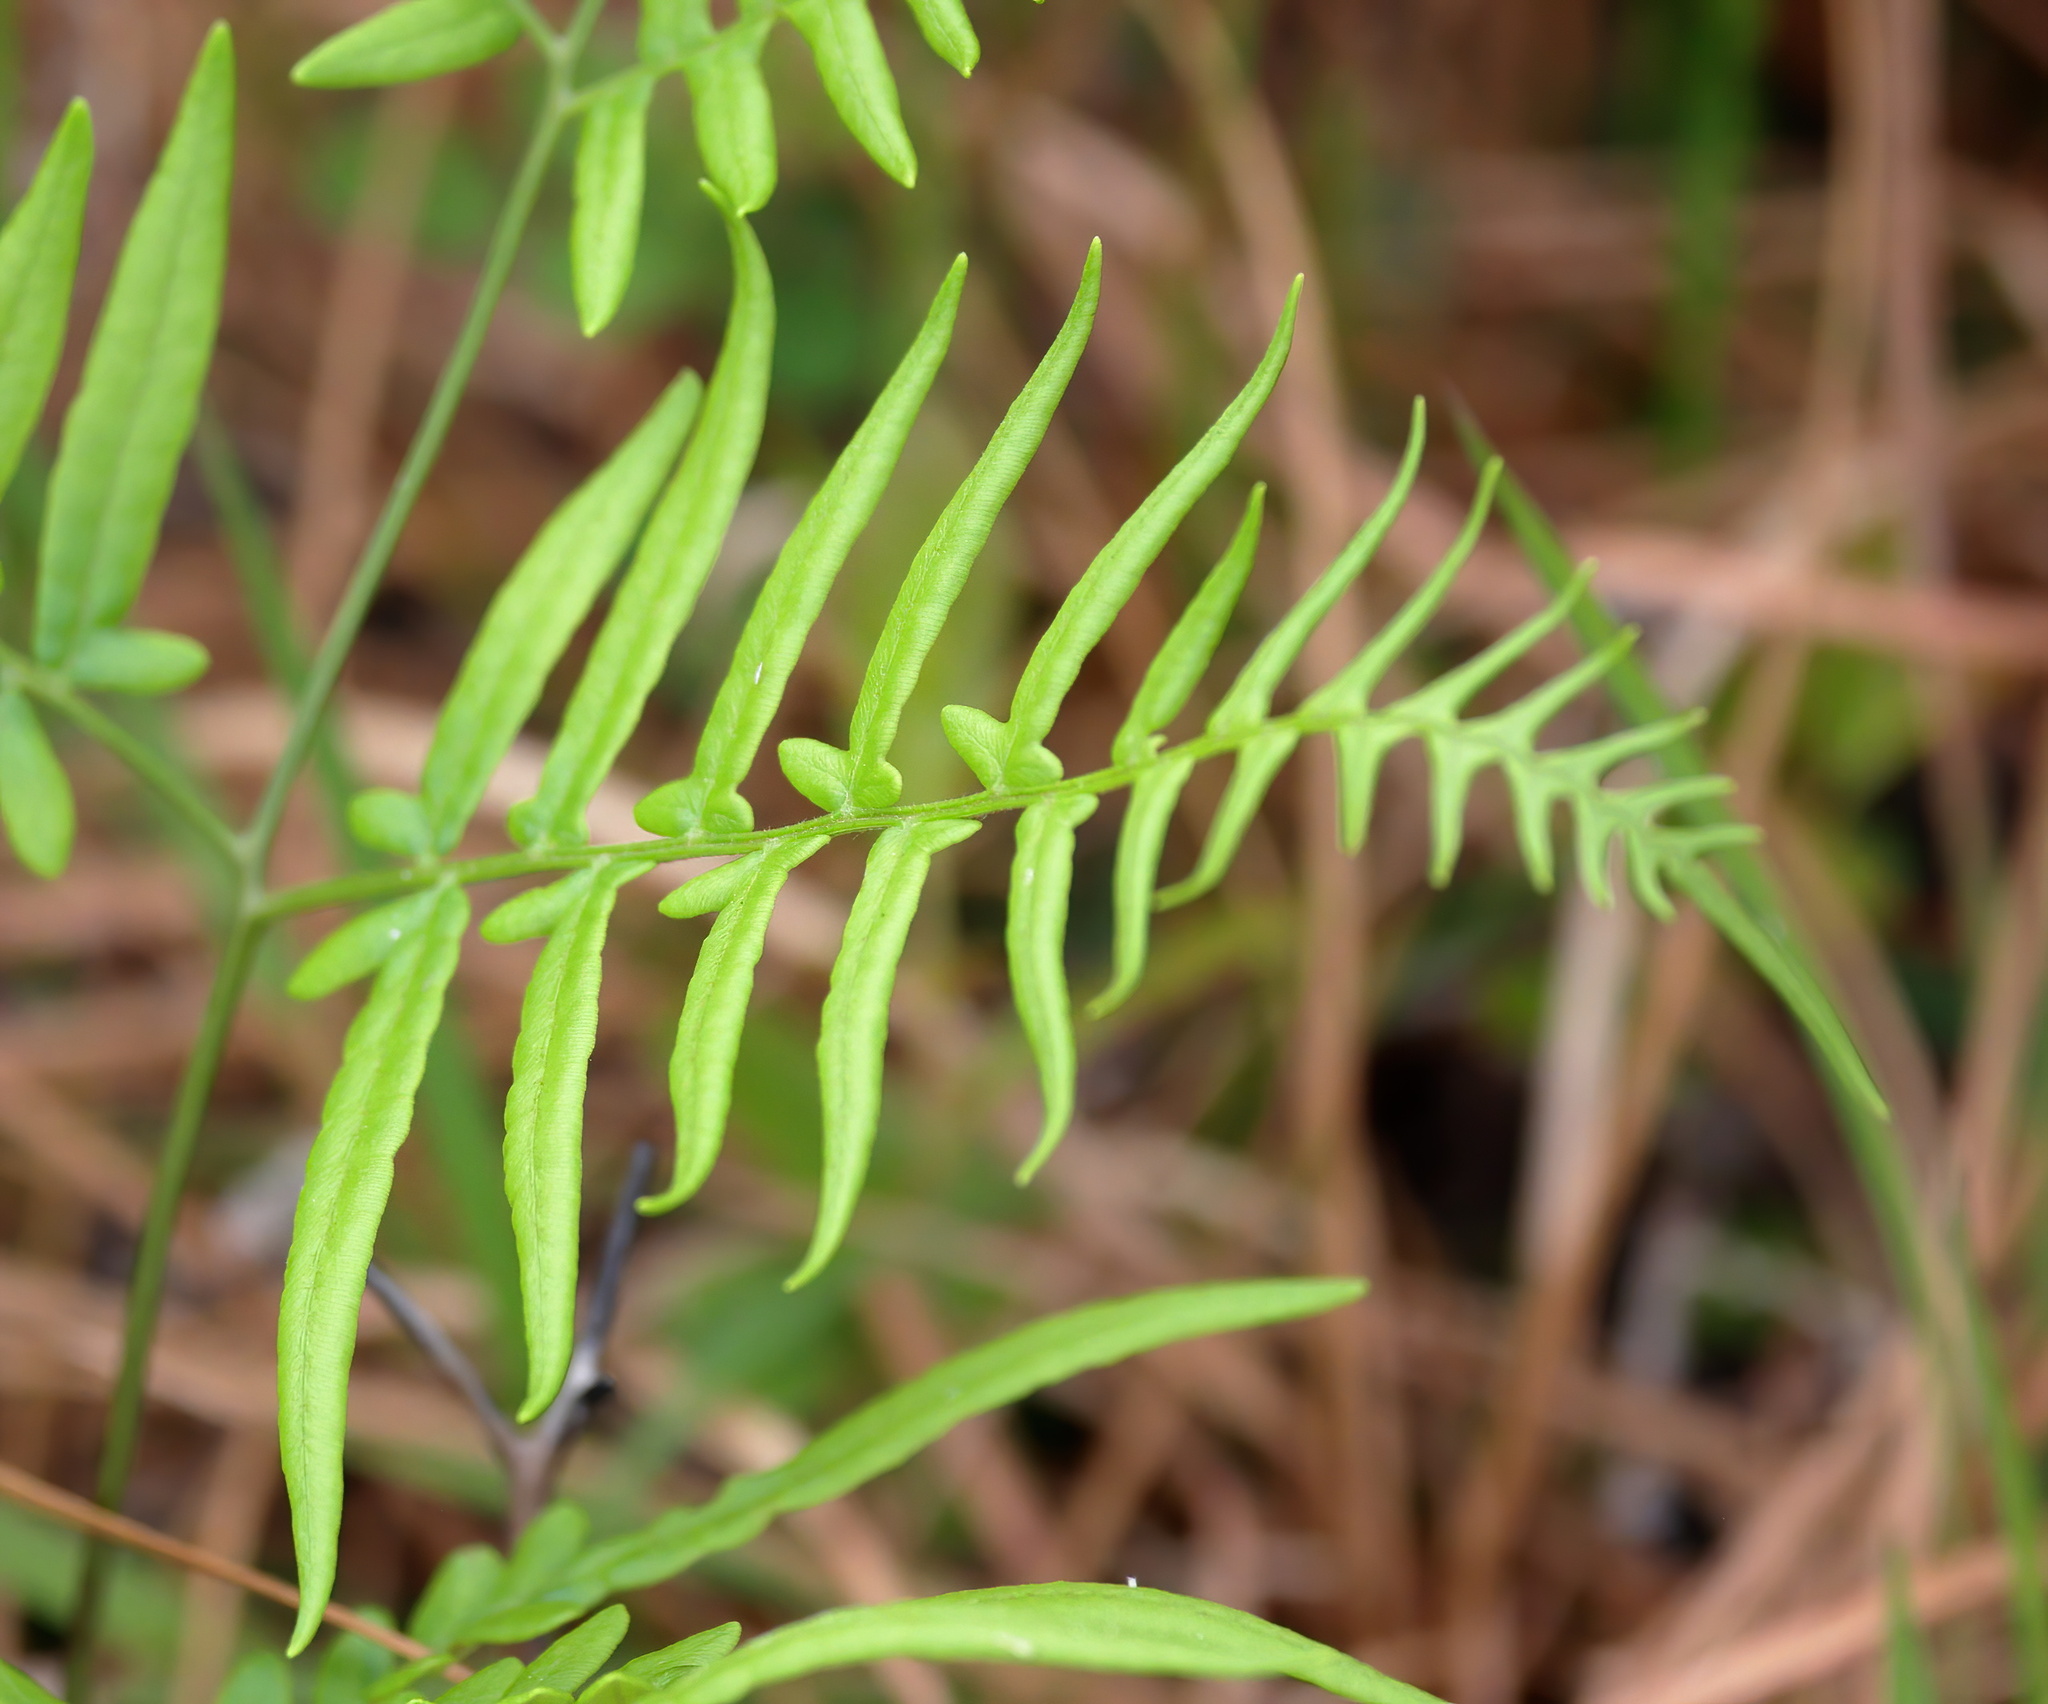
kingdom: Plantae
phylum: Tracheophyta
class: Polypodiopsida
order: Polypodiales
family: Dennstaedtiaceae
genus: Pteridium
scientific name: Pteridium
